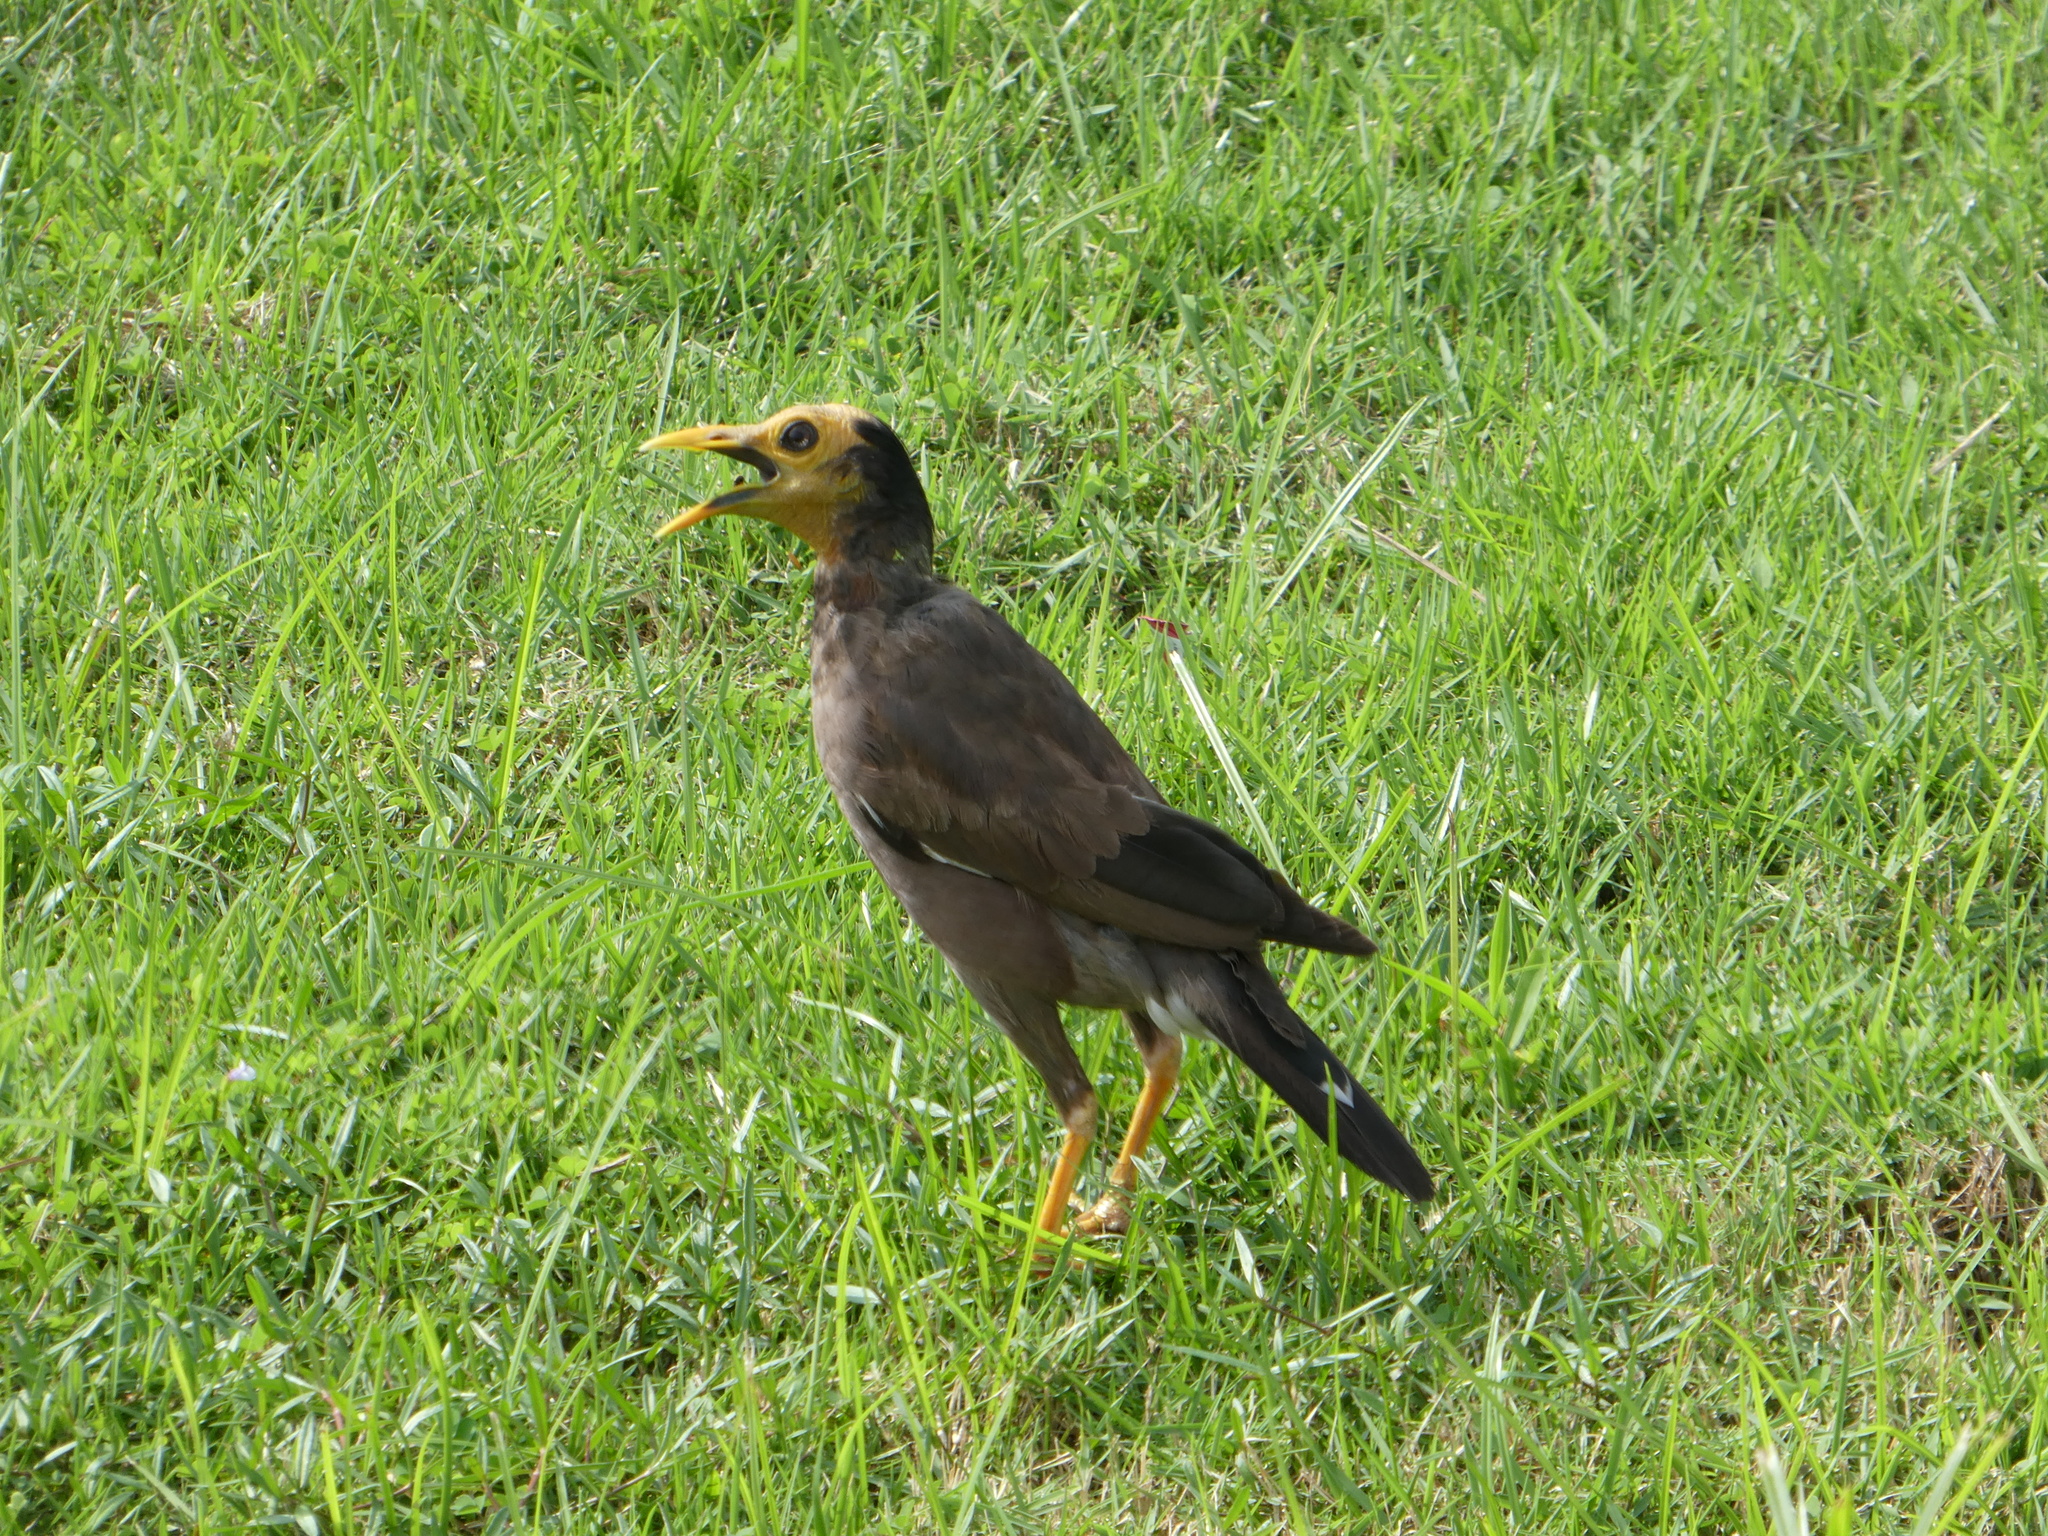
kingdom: Animalia
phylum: Chordata
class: Aves
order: Passeriformes
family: Sturnidae
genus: Acridotheres
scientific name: Acridotheres tristis
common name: Common myna
